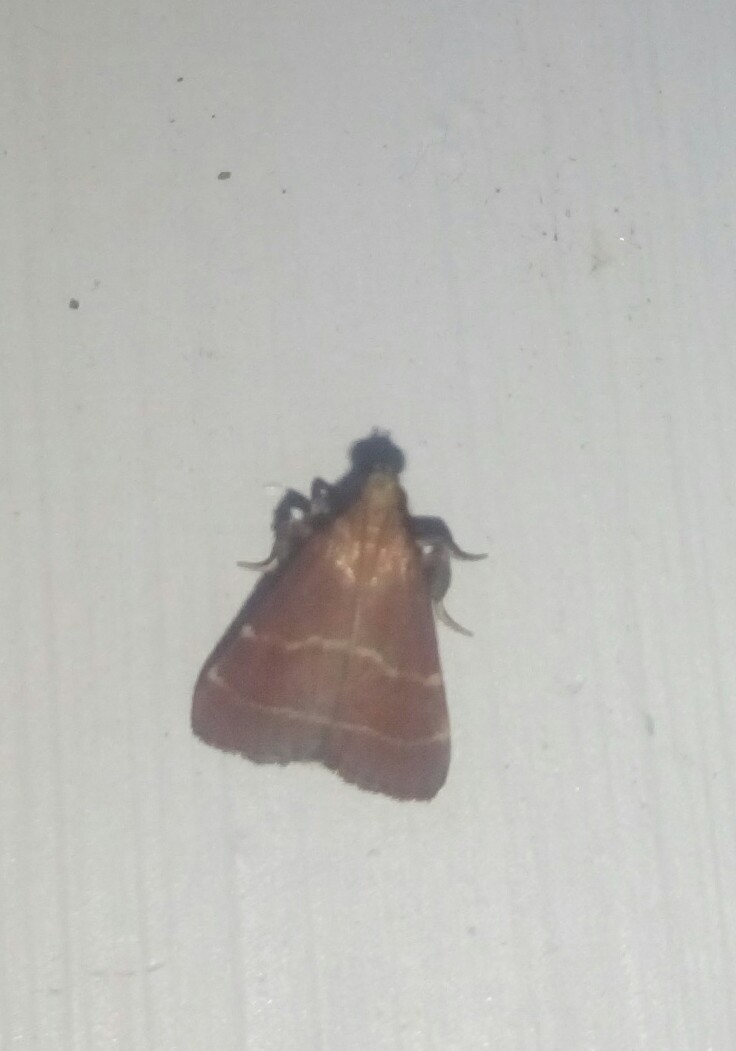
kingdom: Animalia
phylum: Arthropoda
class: Insecta
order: Lepidoptera
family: Pyralidae
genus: Arta
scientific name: Arta statalis
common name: Posturing arta moth
